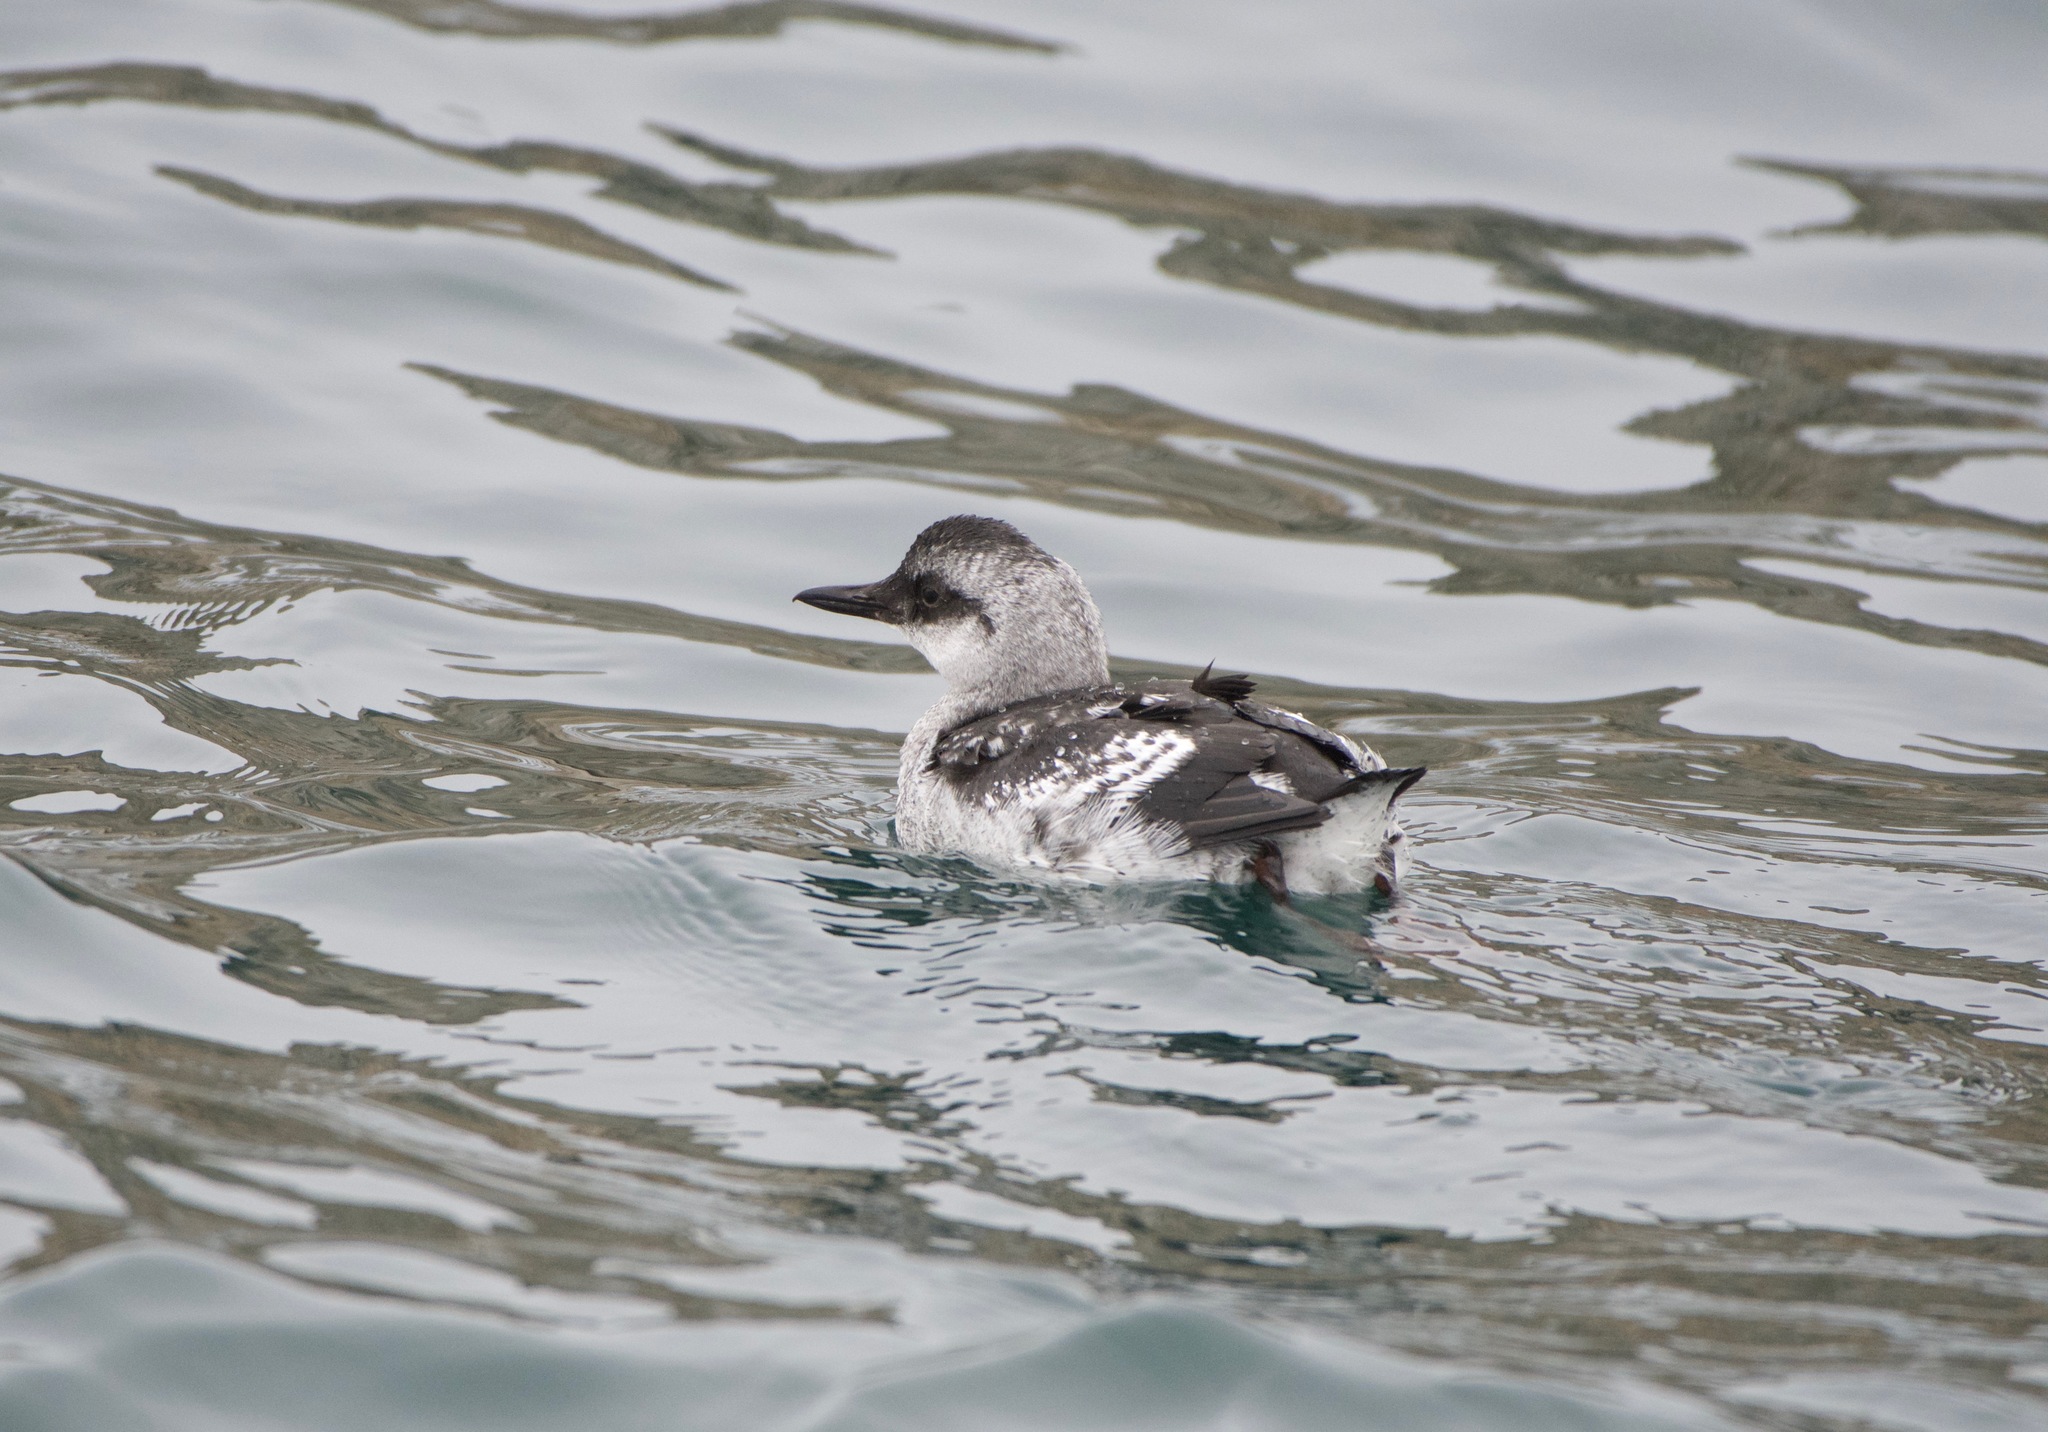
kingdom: Animalia
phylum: Chordata
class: Aves
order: Charadriiformes
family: Alcidae
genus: Cepphus
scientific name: Cepphus columba
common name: Pigeon guillemot
